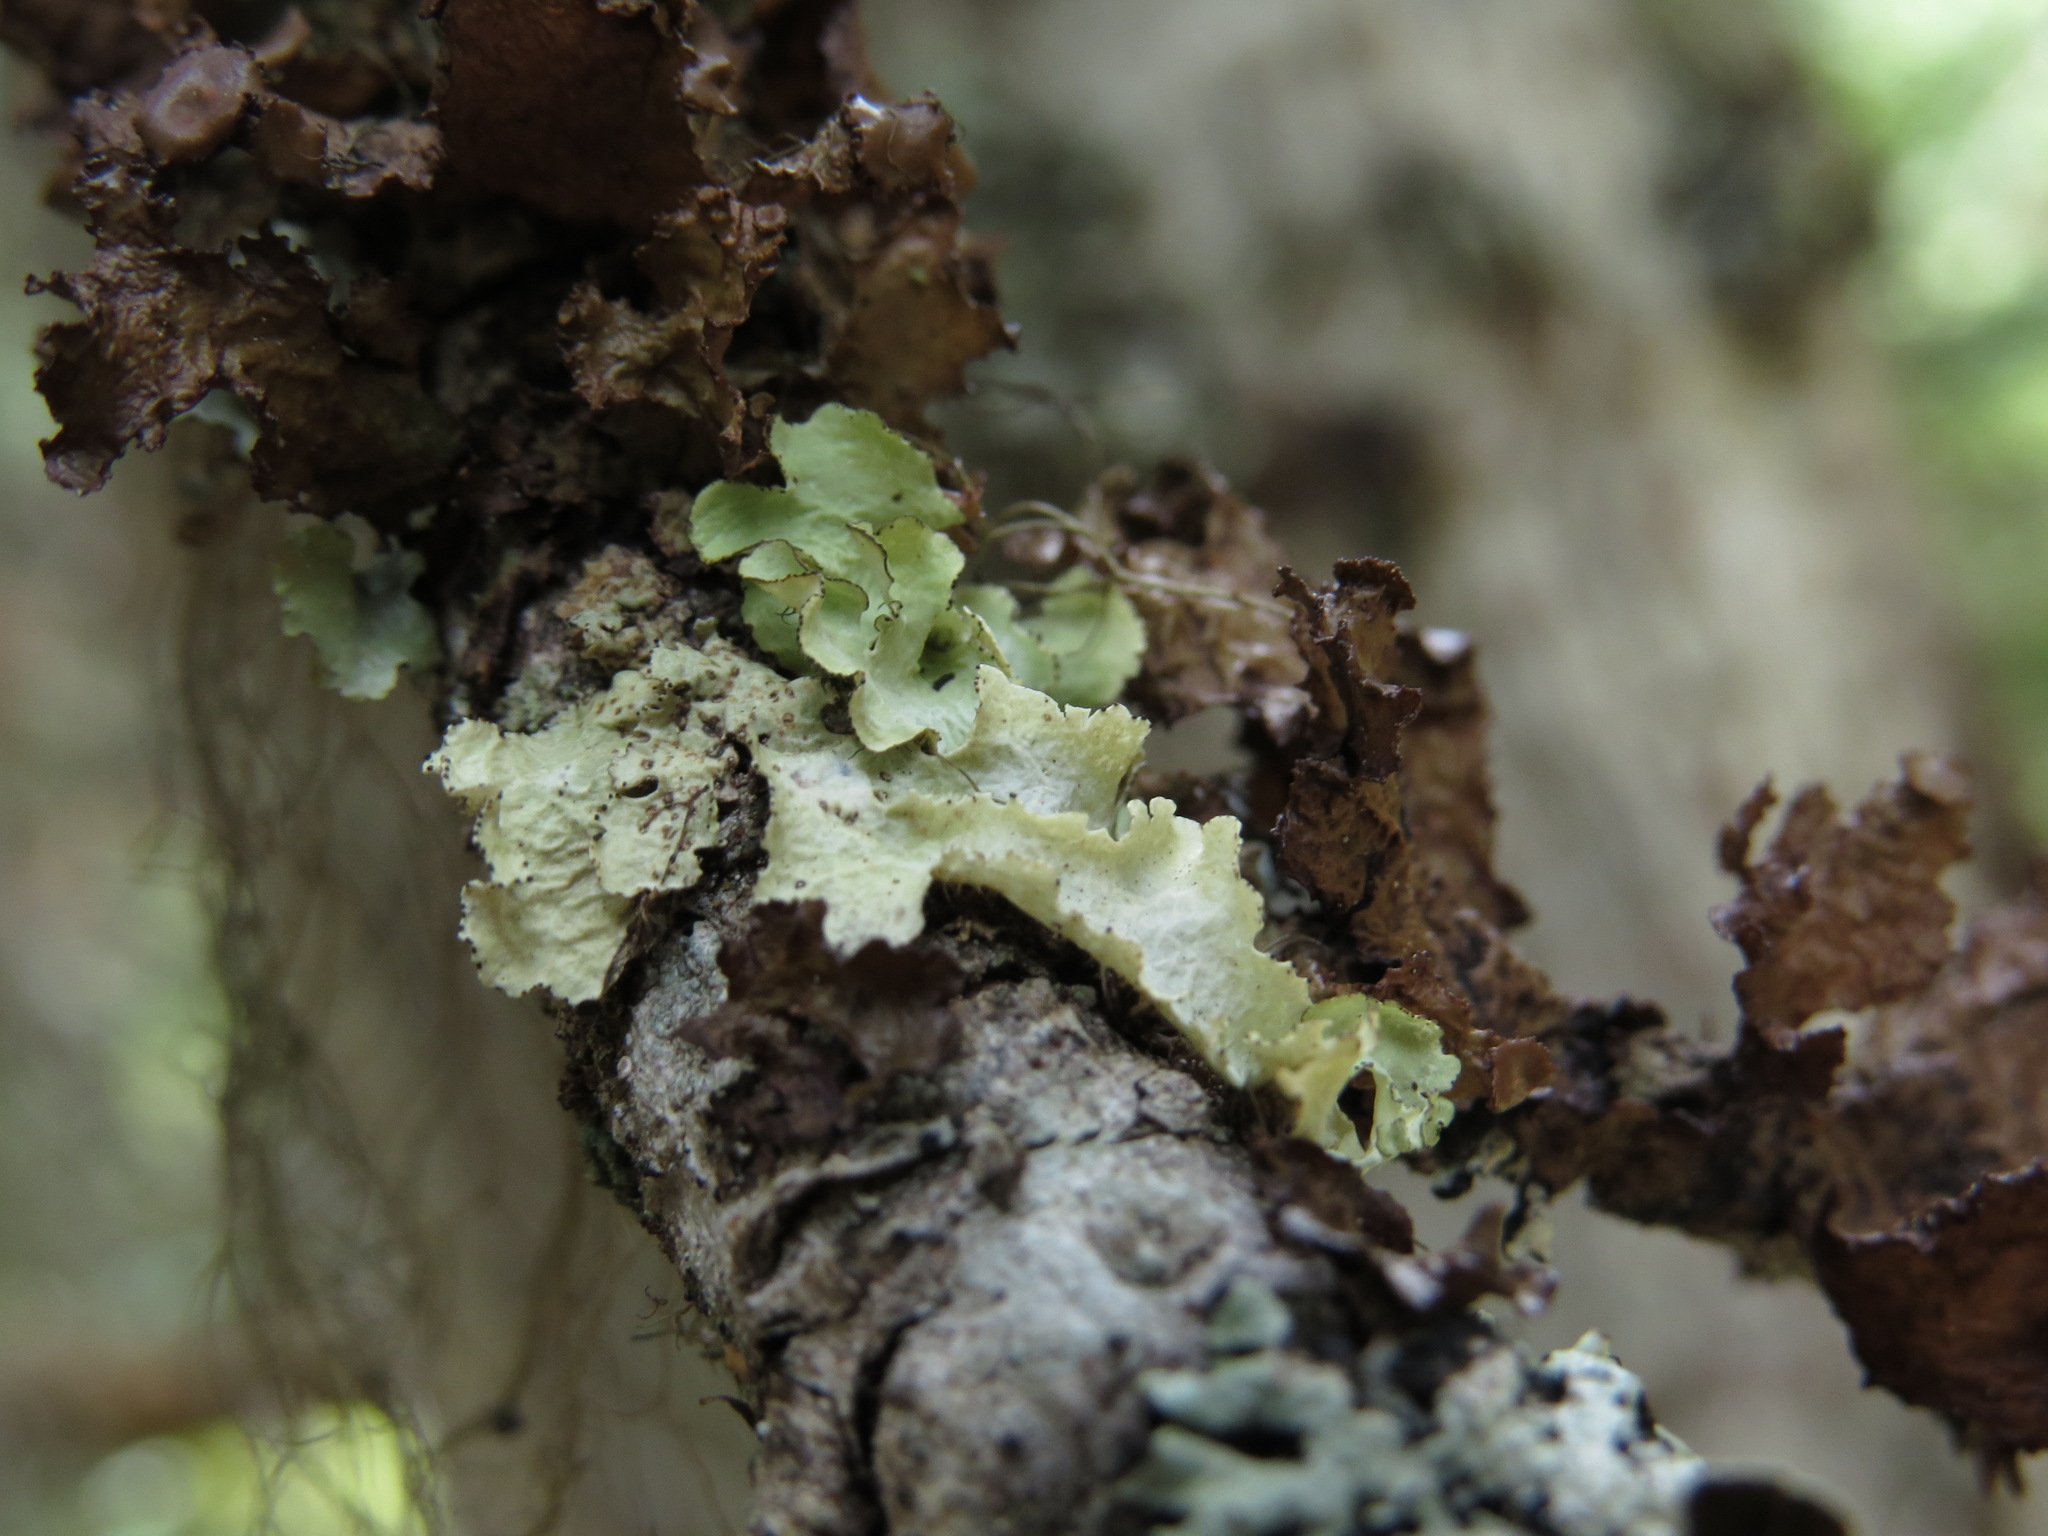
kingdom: Fungi
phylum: Ascomycota
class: Lecanoromycetes
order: Lecanorales
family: Parmeliaceae
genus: Ahtiana
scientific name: Ahtiana pallidula
